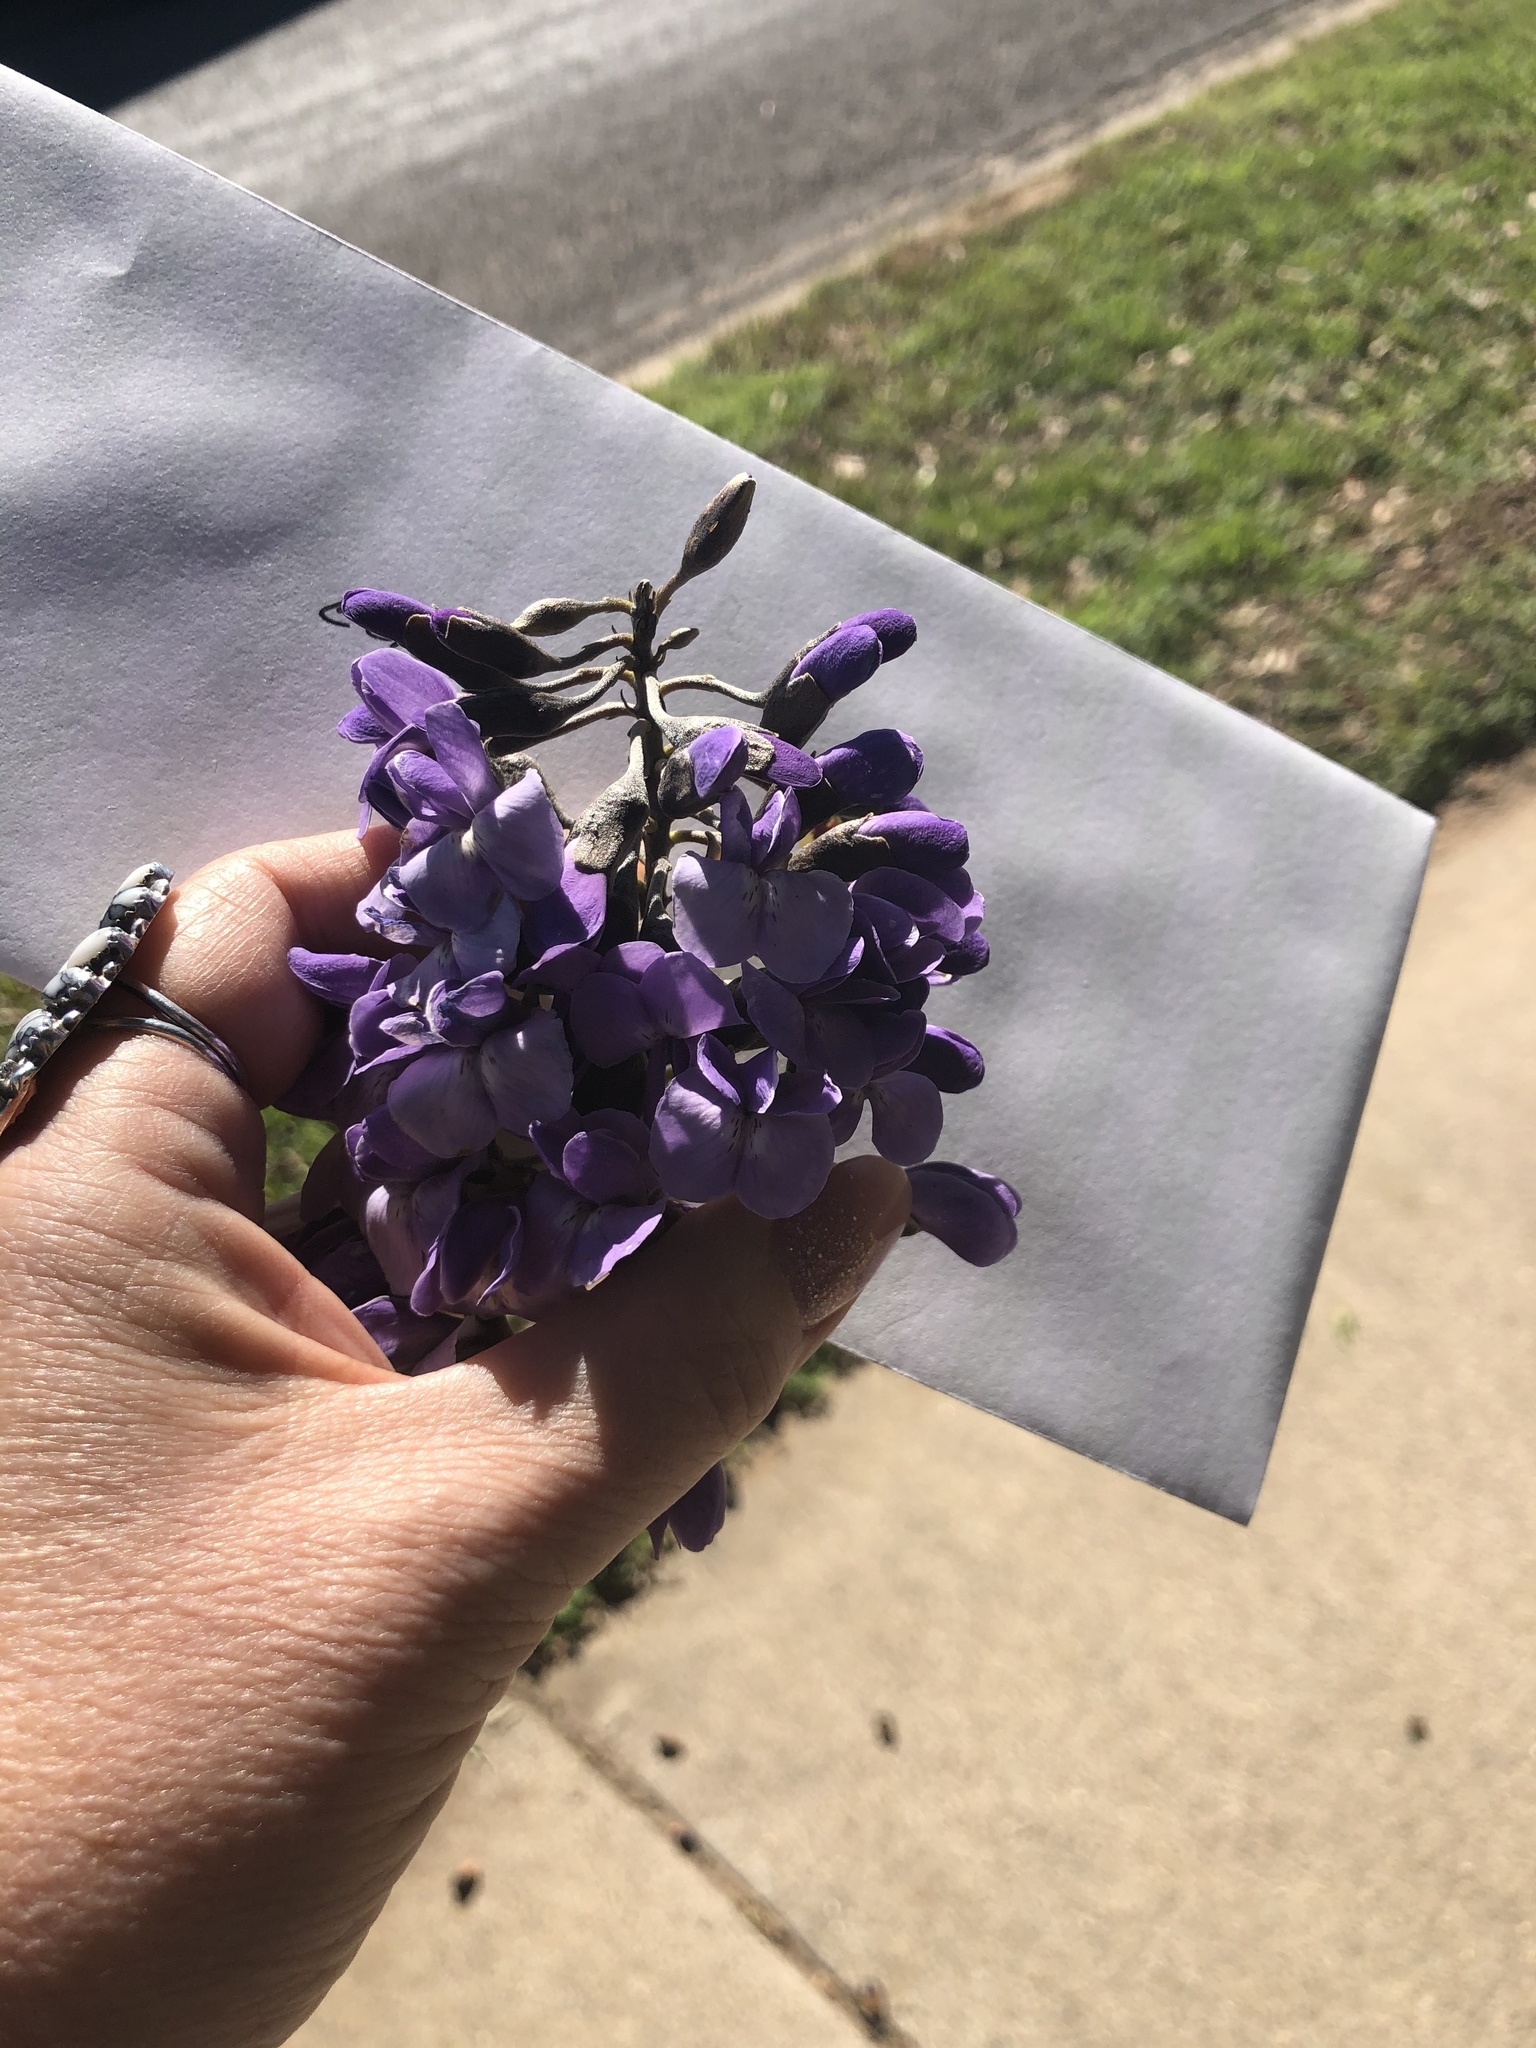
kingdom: Plantae
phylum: Tracheophyta
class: Magnoliopsida
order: Fabales
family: Fabaceae
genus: Dermatophyllum
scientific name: Dermatophyllum secundiflorum
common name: Texas-mountain-laurel
